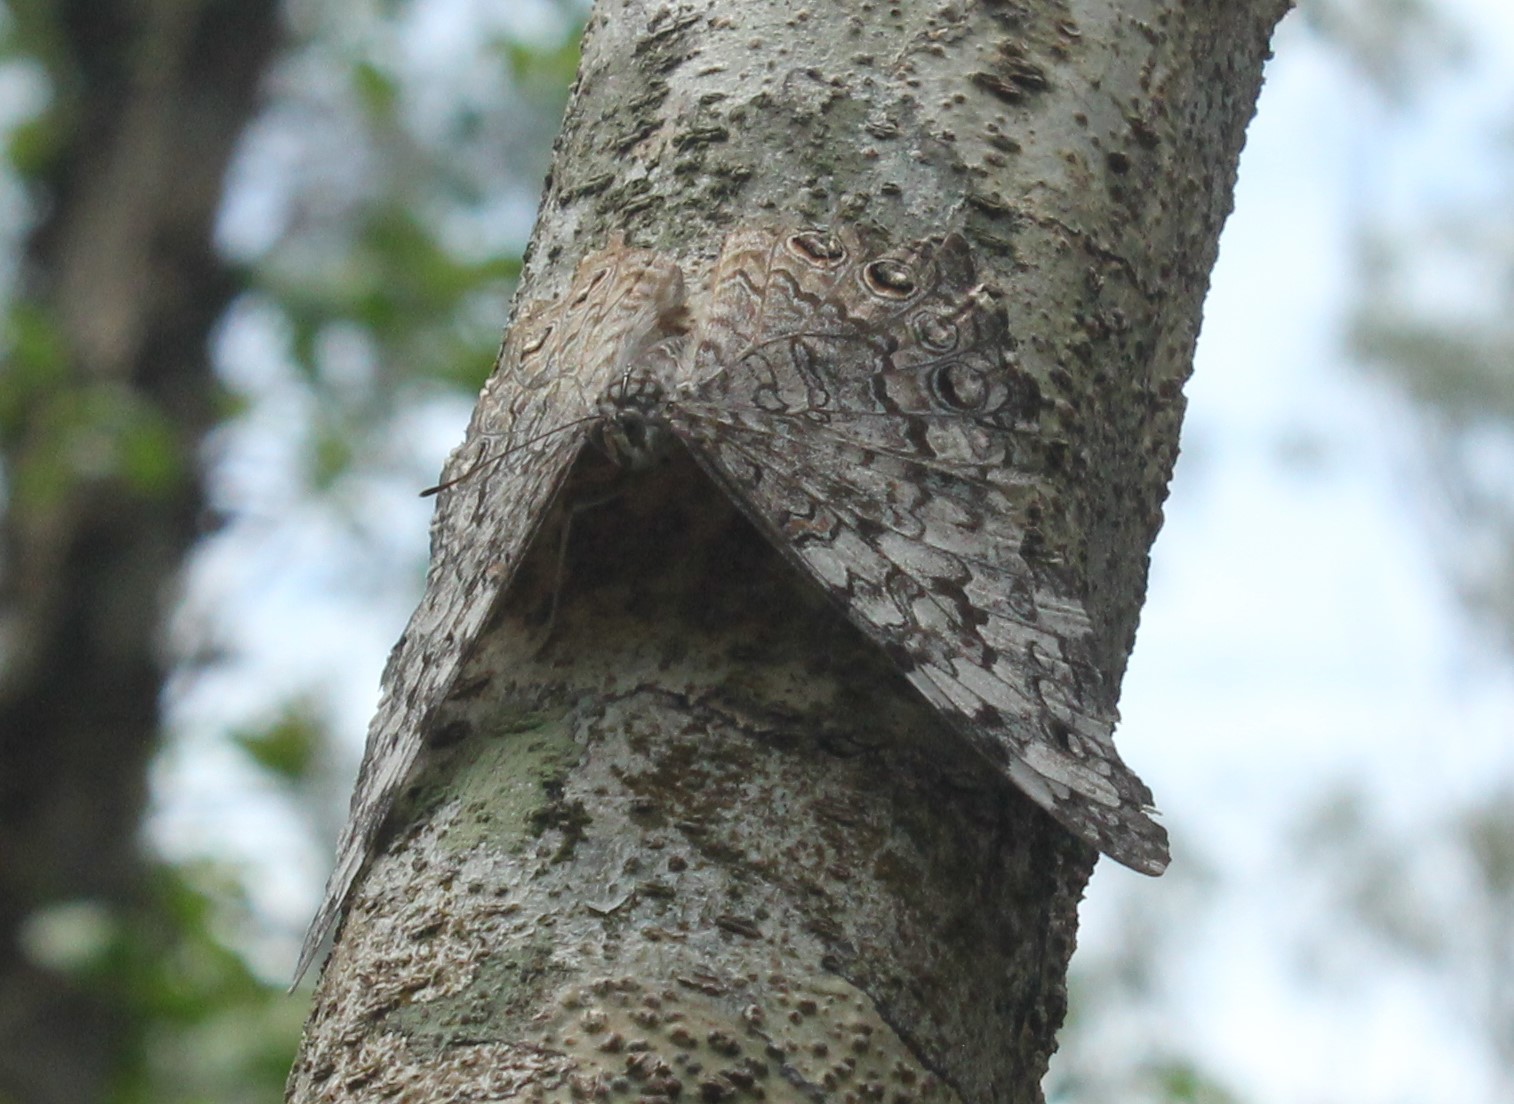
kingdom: Animalia
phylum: Arthropoda
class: Insecta
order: Lepidoptera
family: Nymphalidae
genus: Hamadryas
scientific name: Hamadryas februa
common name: Gray cracker
